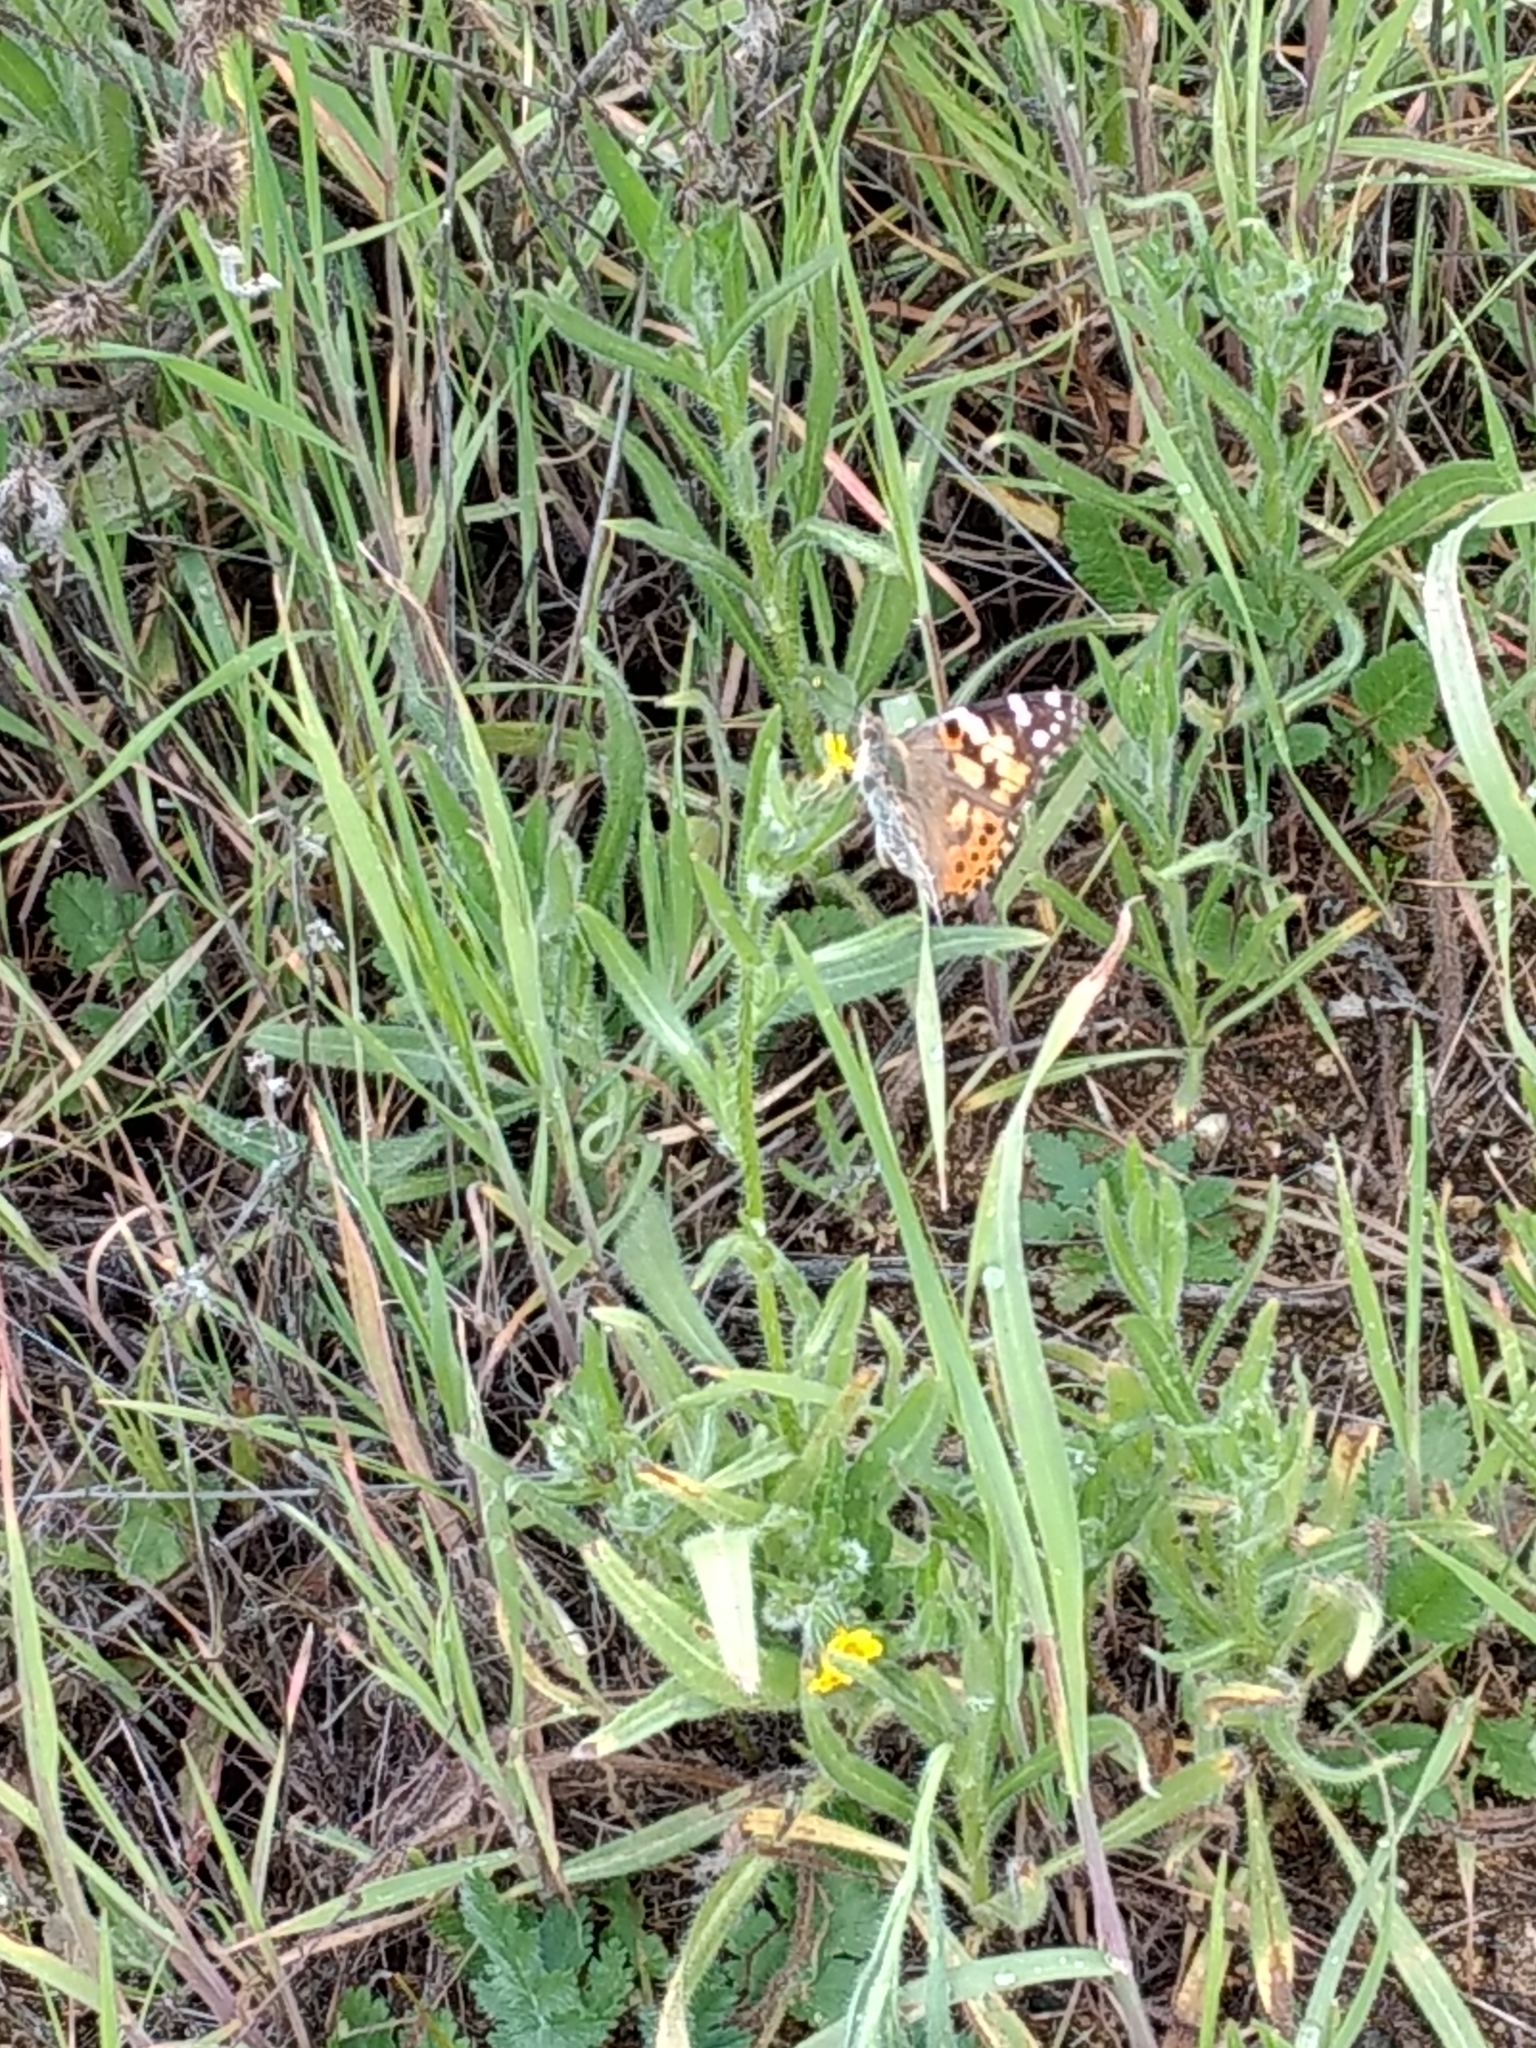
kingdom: Animalia
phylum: Arthropoda
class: Insecta
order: Lepidoptera
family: Nymphalidae
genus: Vanessa
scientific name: Vanessa cardui
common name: Painted lady
